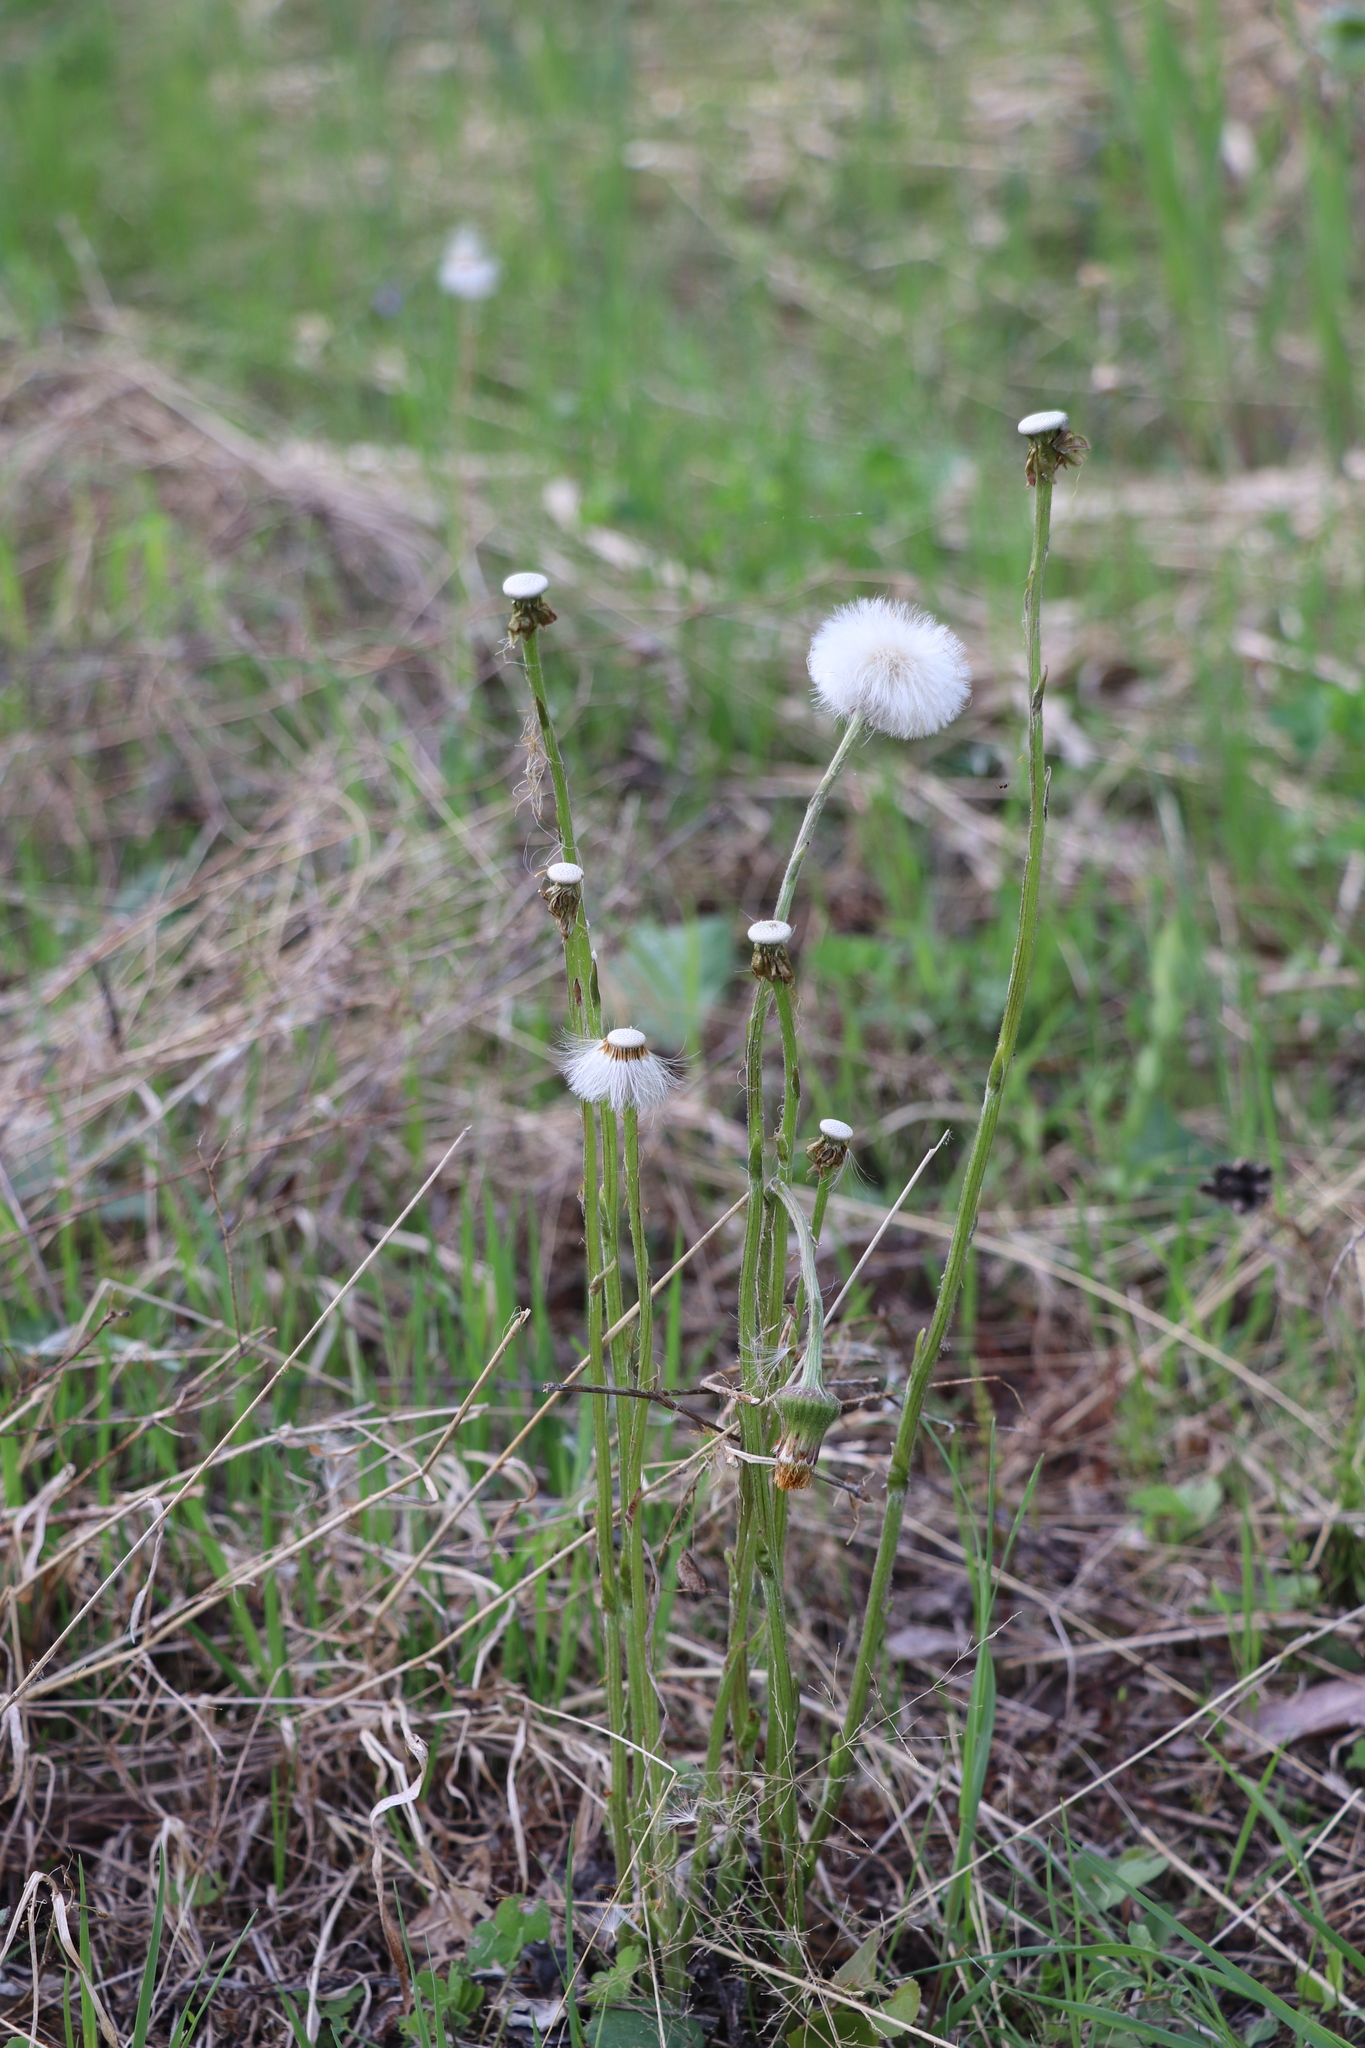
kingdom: Plantae
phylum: Tracheophyta
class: Magnoliopsida
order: Asterales
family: Asteraceae
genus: Tussilago
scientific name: Tussilago farfara
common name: Coltsfoot
